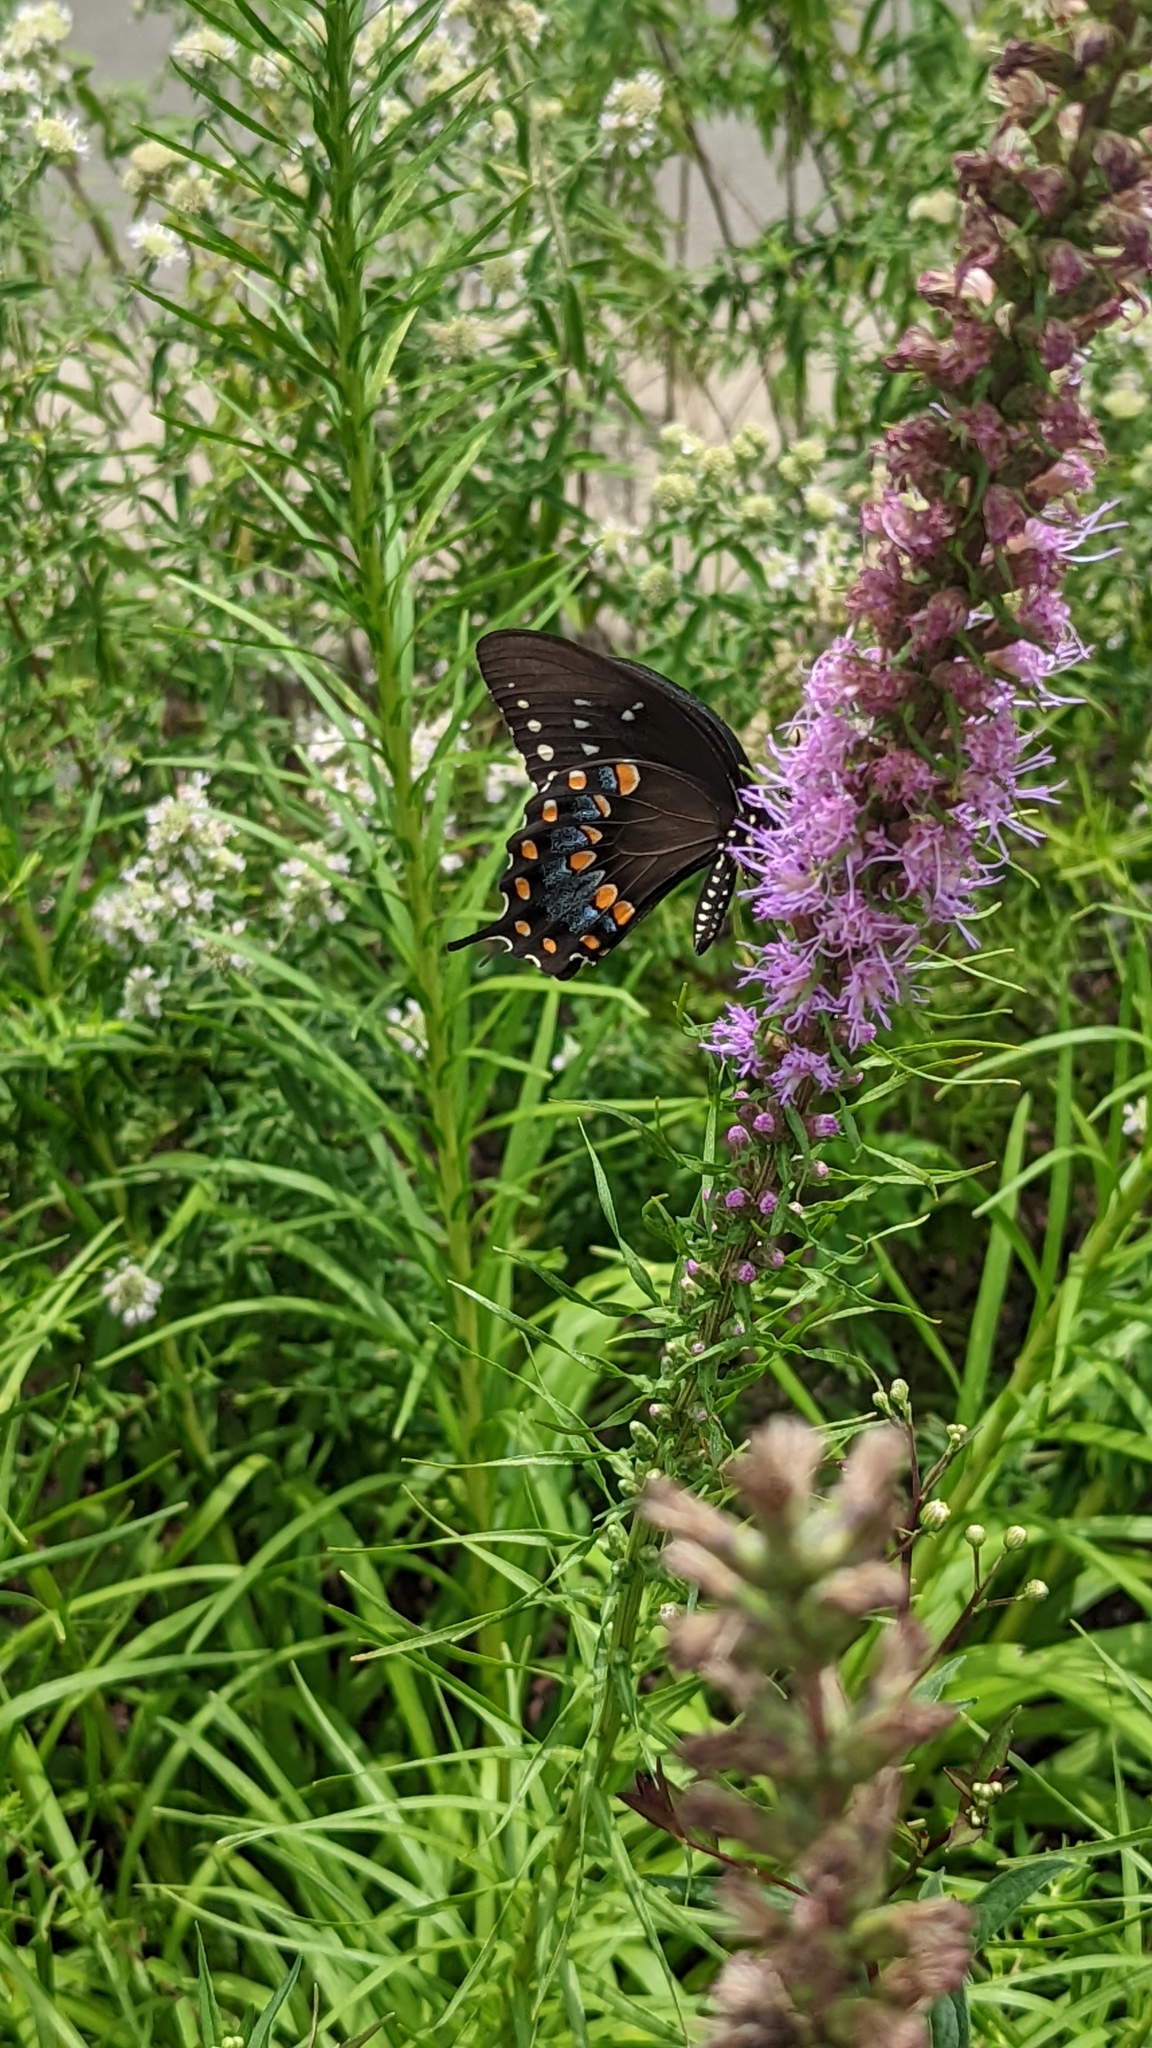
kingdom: Animalia
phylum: Arthropoda
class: Insecta
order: Lepidoptera
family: Papilionidae
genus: Papilio
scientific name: Papilio troilus
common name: Spicebush swallowtail
